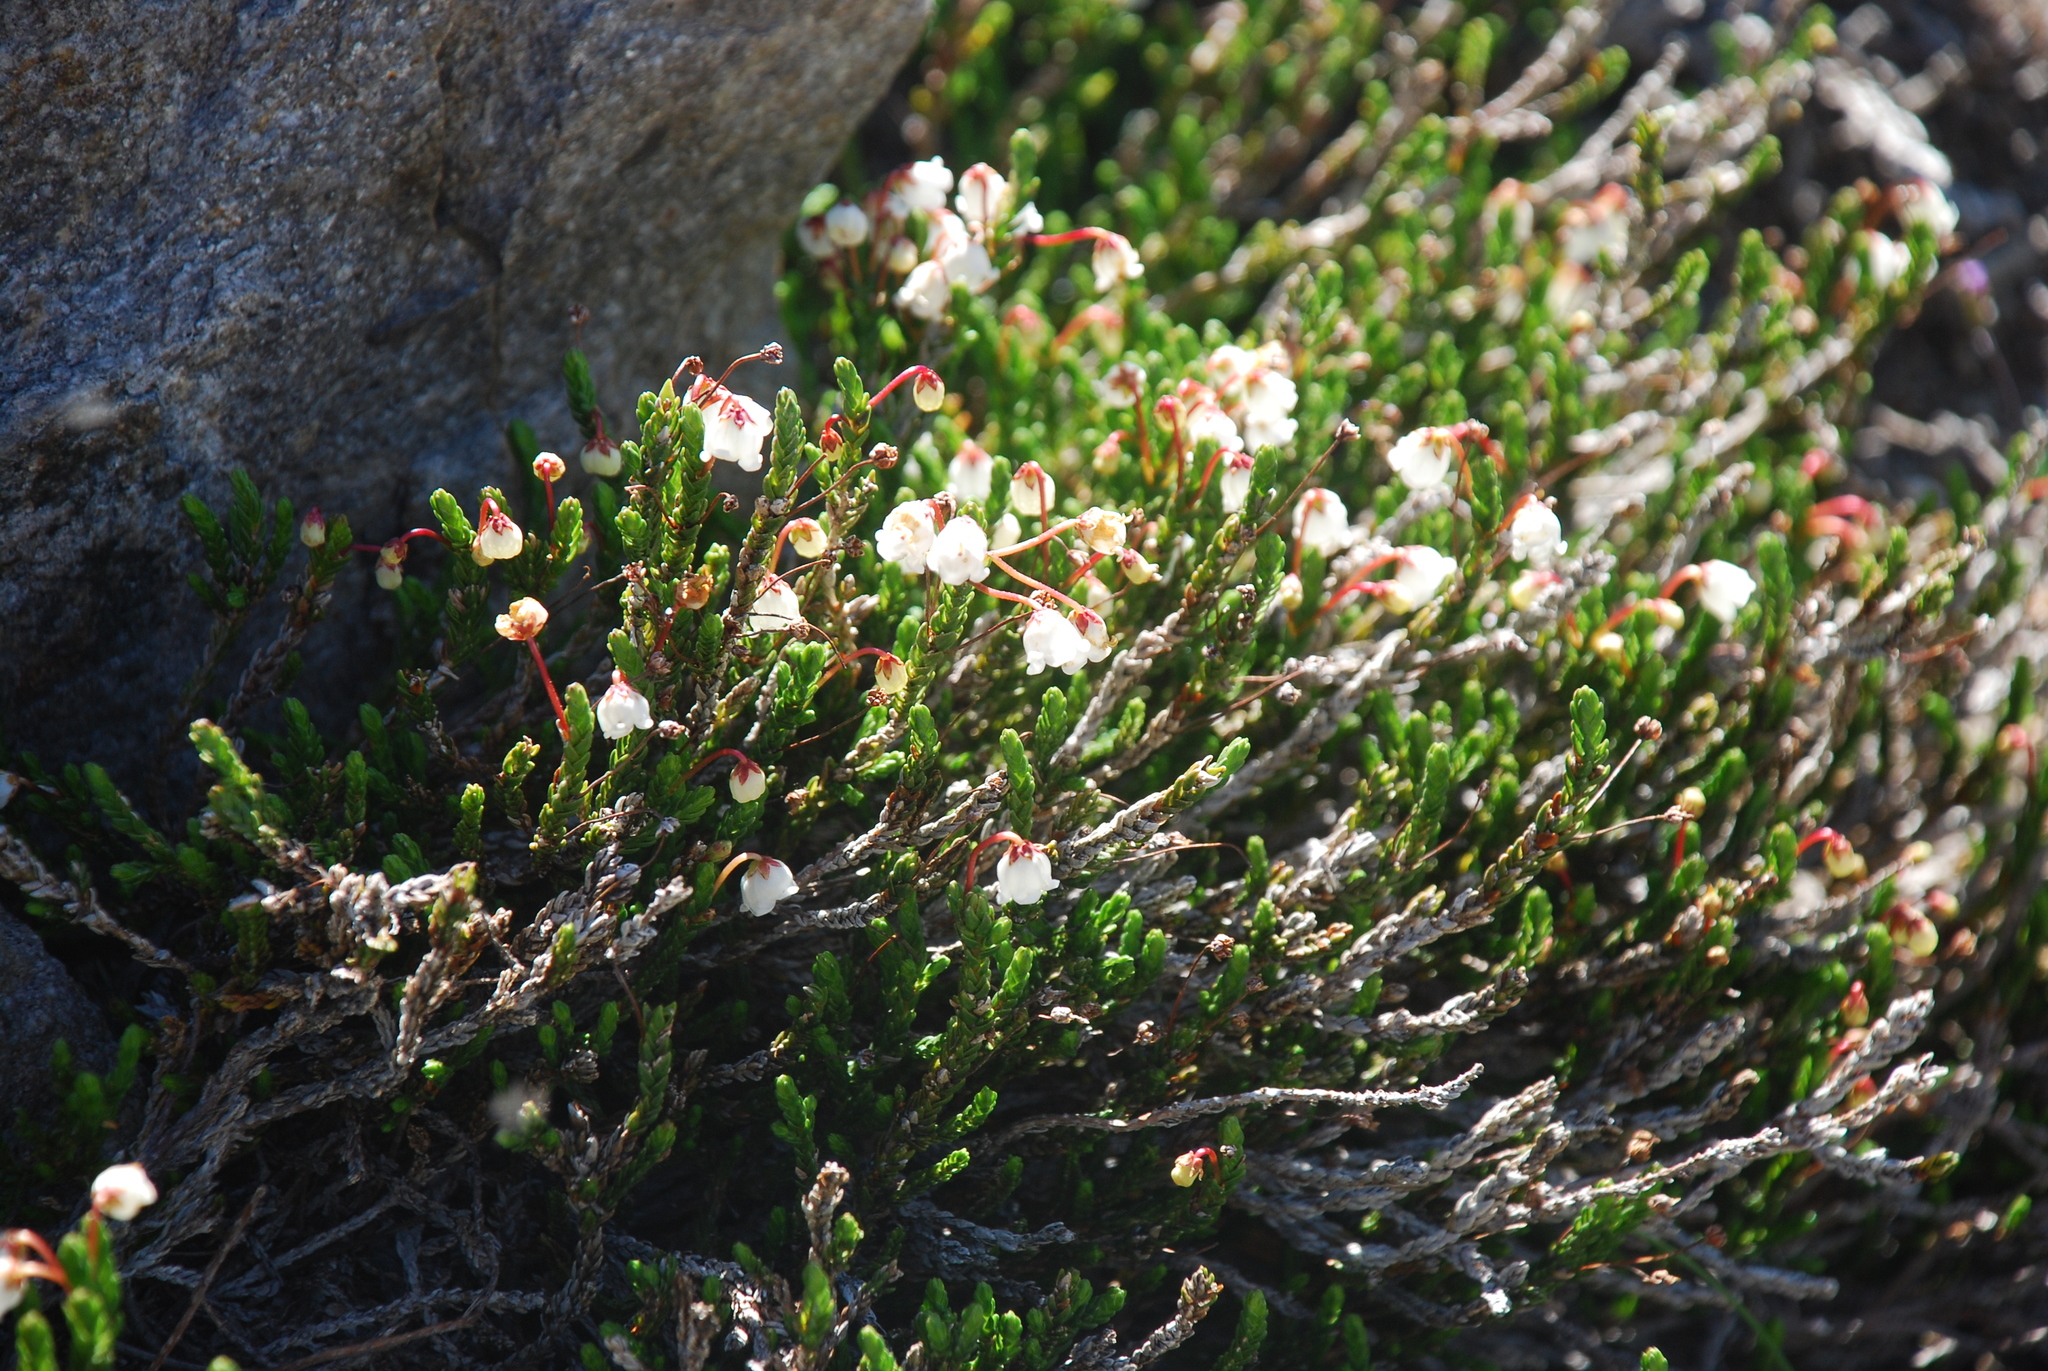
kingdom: Plantae
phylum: Tracheophyta
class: Magnoliopsida
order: Ericales
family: Ericaceae
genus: Cassiope
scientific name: Cassiope mertensiana
